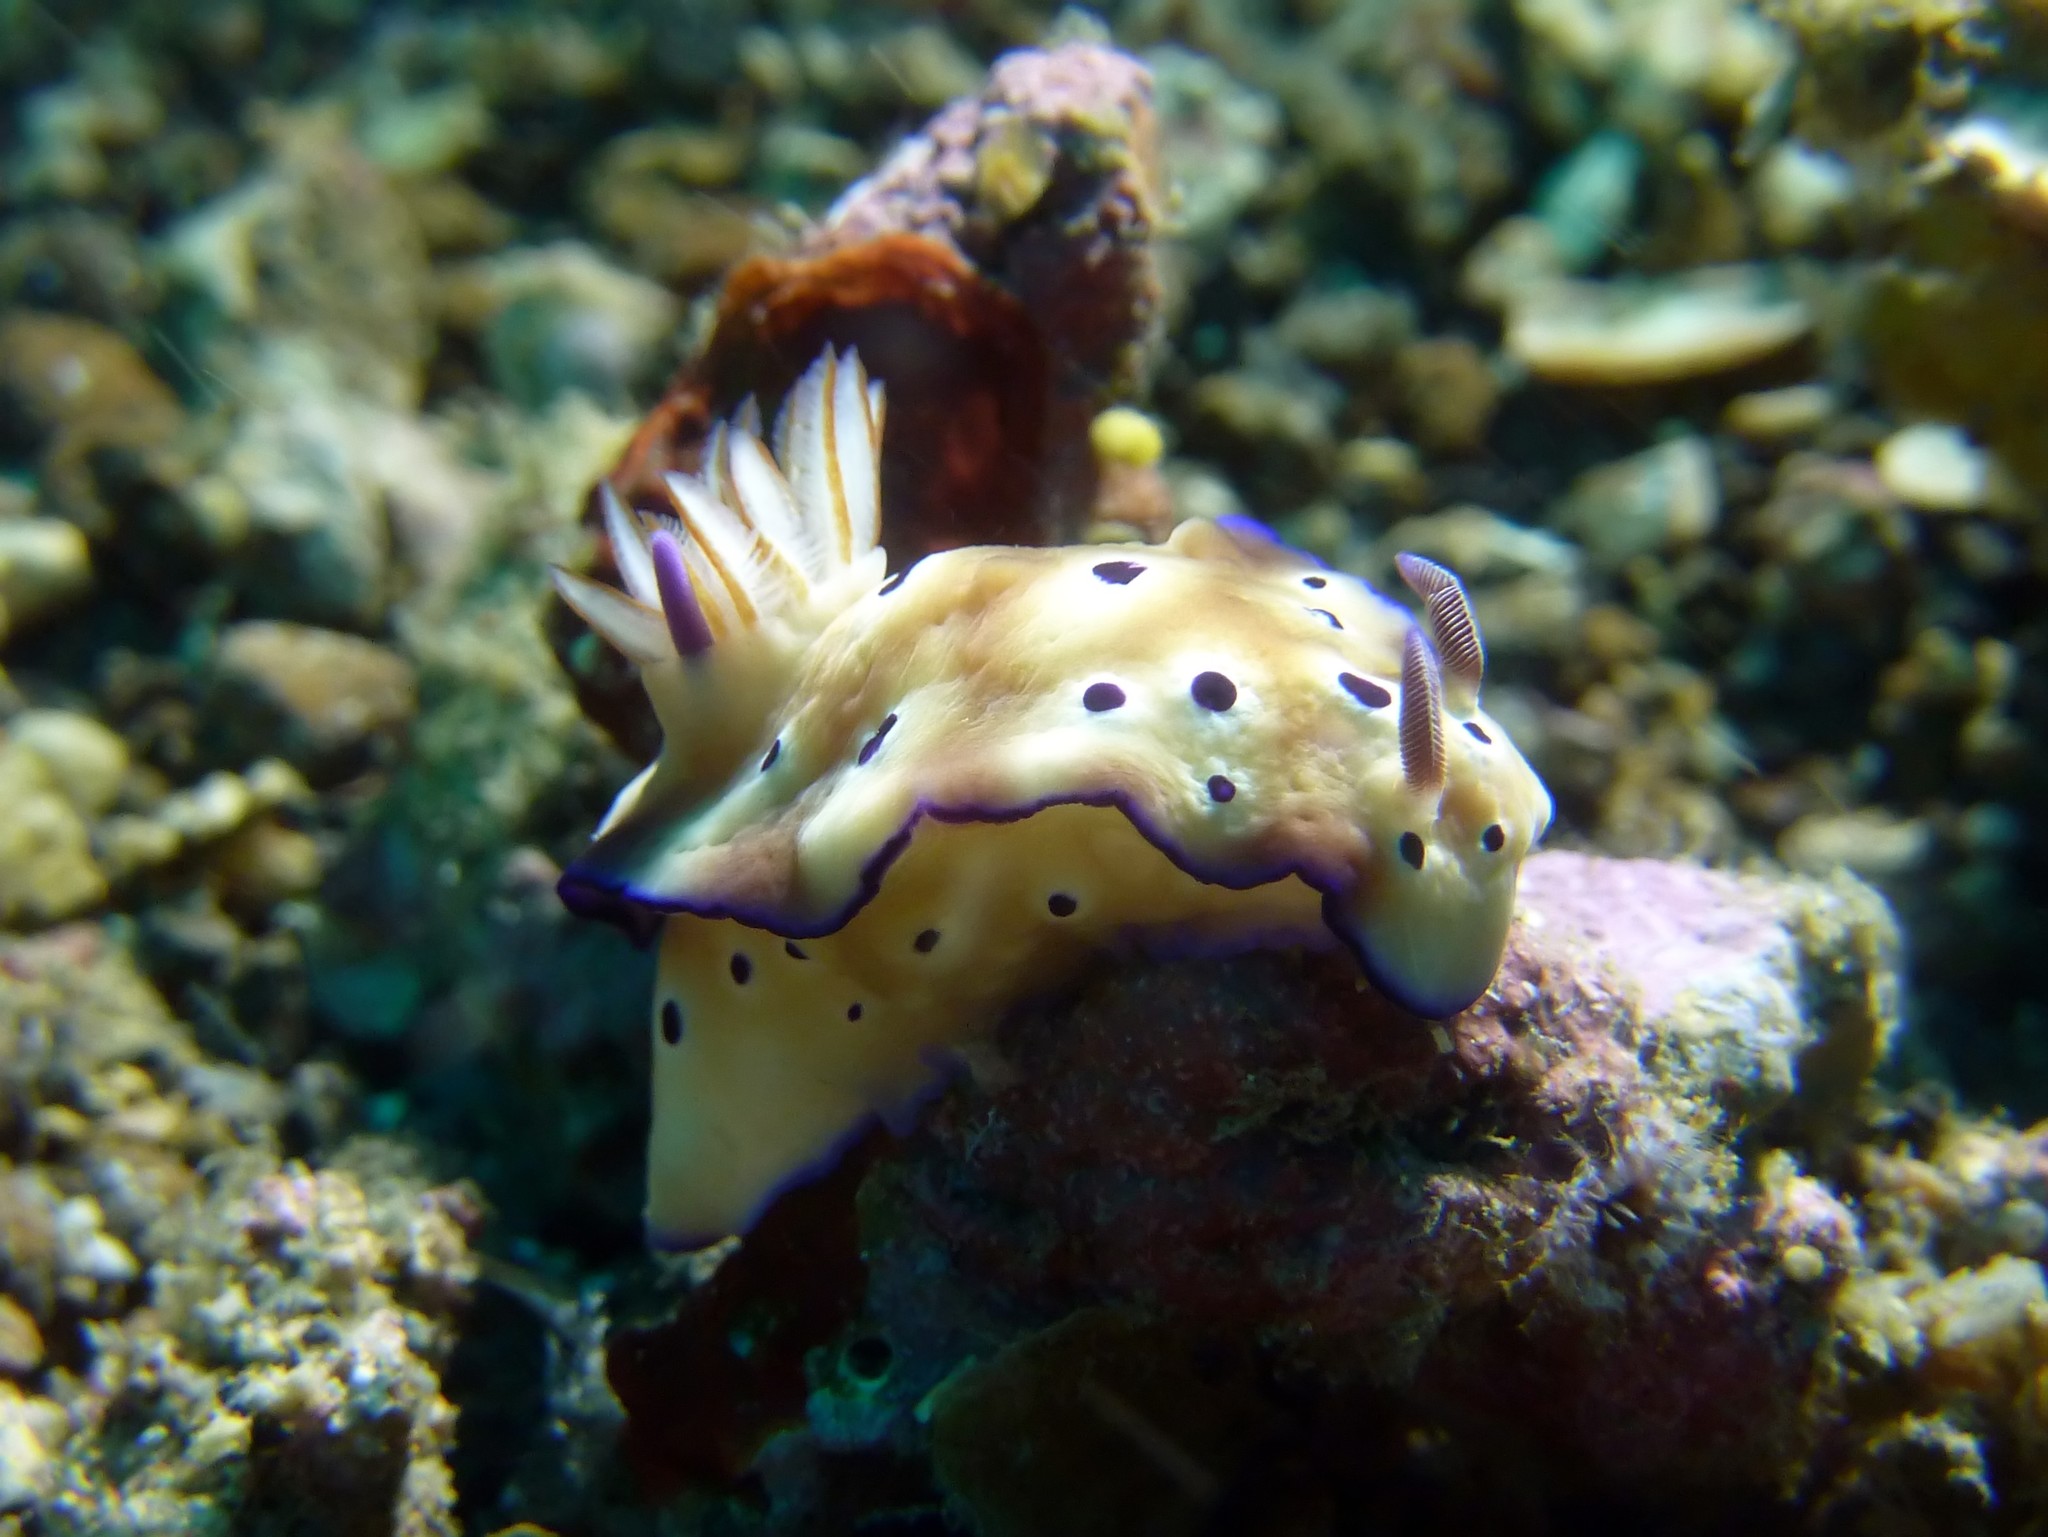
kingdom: Animalia
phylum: Mollusca
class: Gastropoda
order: Nudibranchia
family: Chromodorididae
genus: Hypselodoris
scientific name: Hypselodoris tryoni
